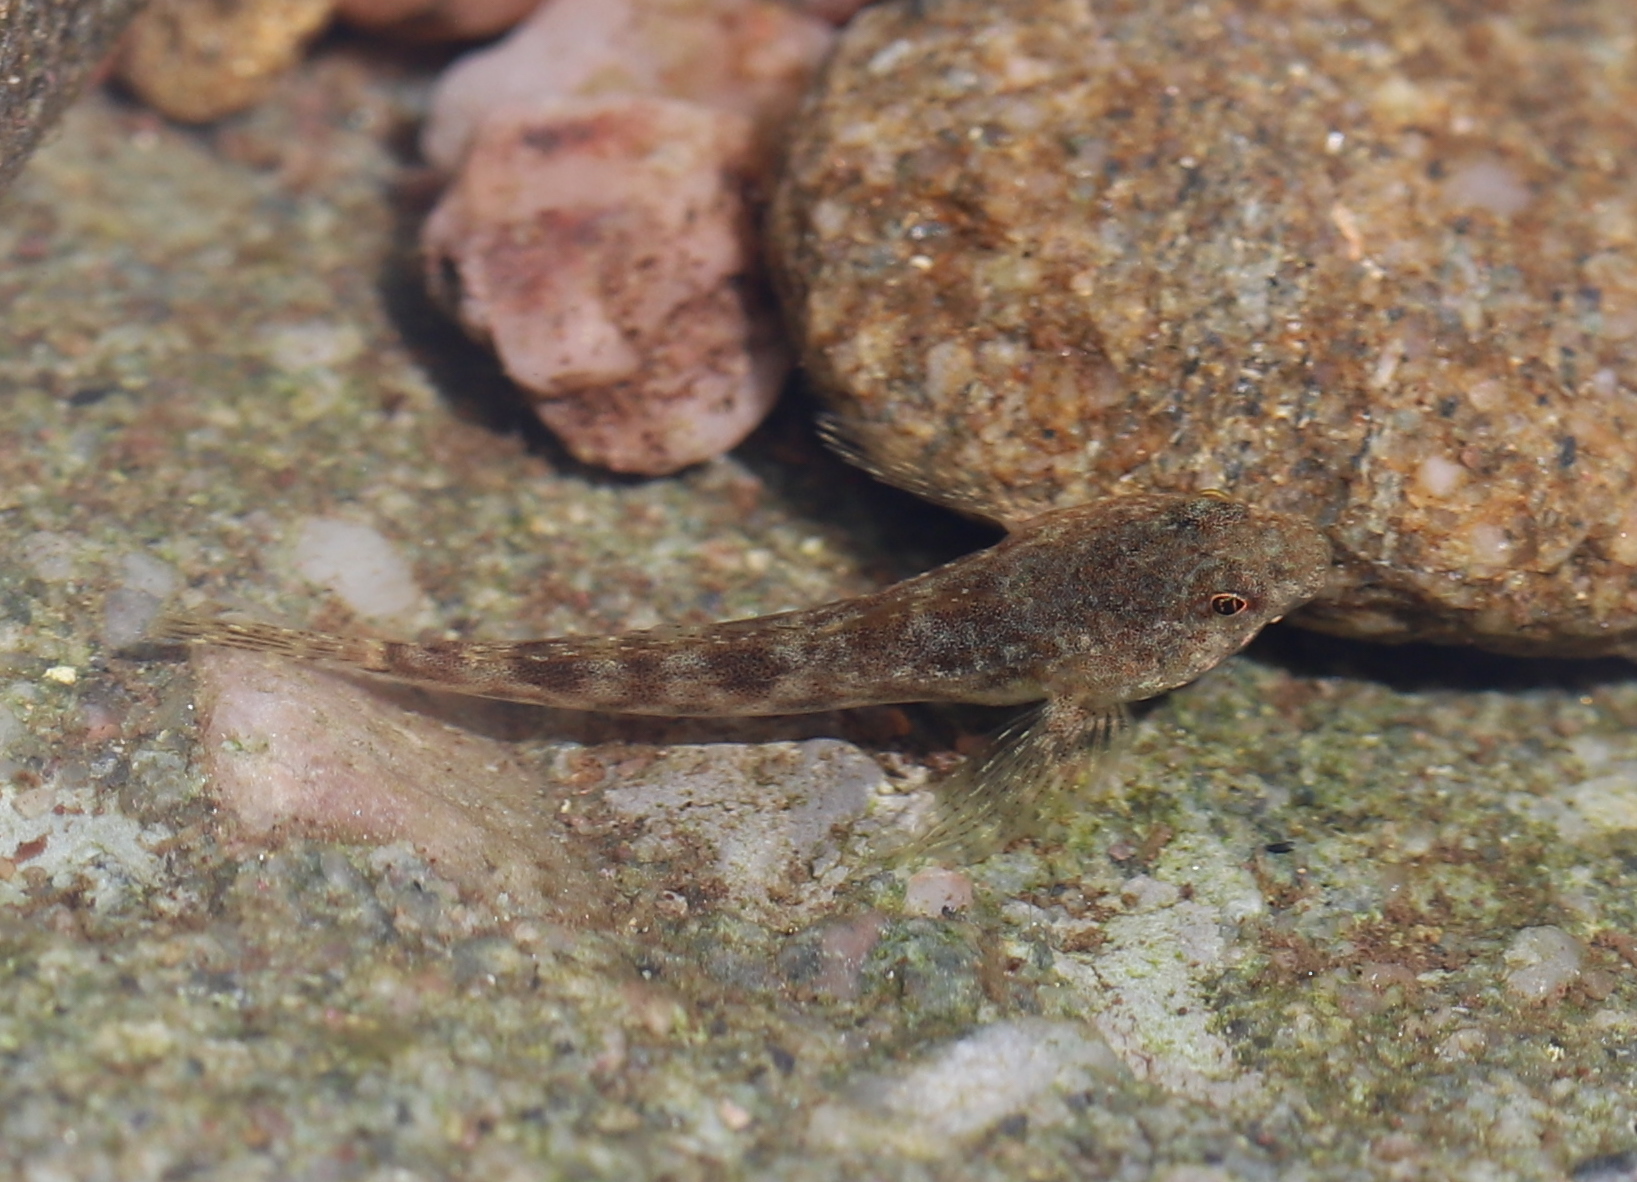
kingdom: Animalia
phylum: Chordata
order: Scorpaeniformes
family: Cottidae
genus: Cottus
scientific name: Cottus cognatus
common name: Slimy sculpin
